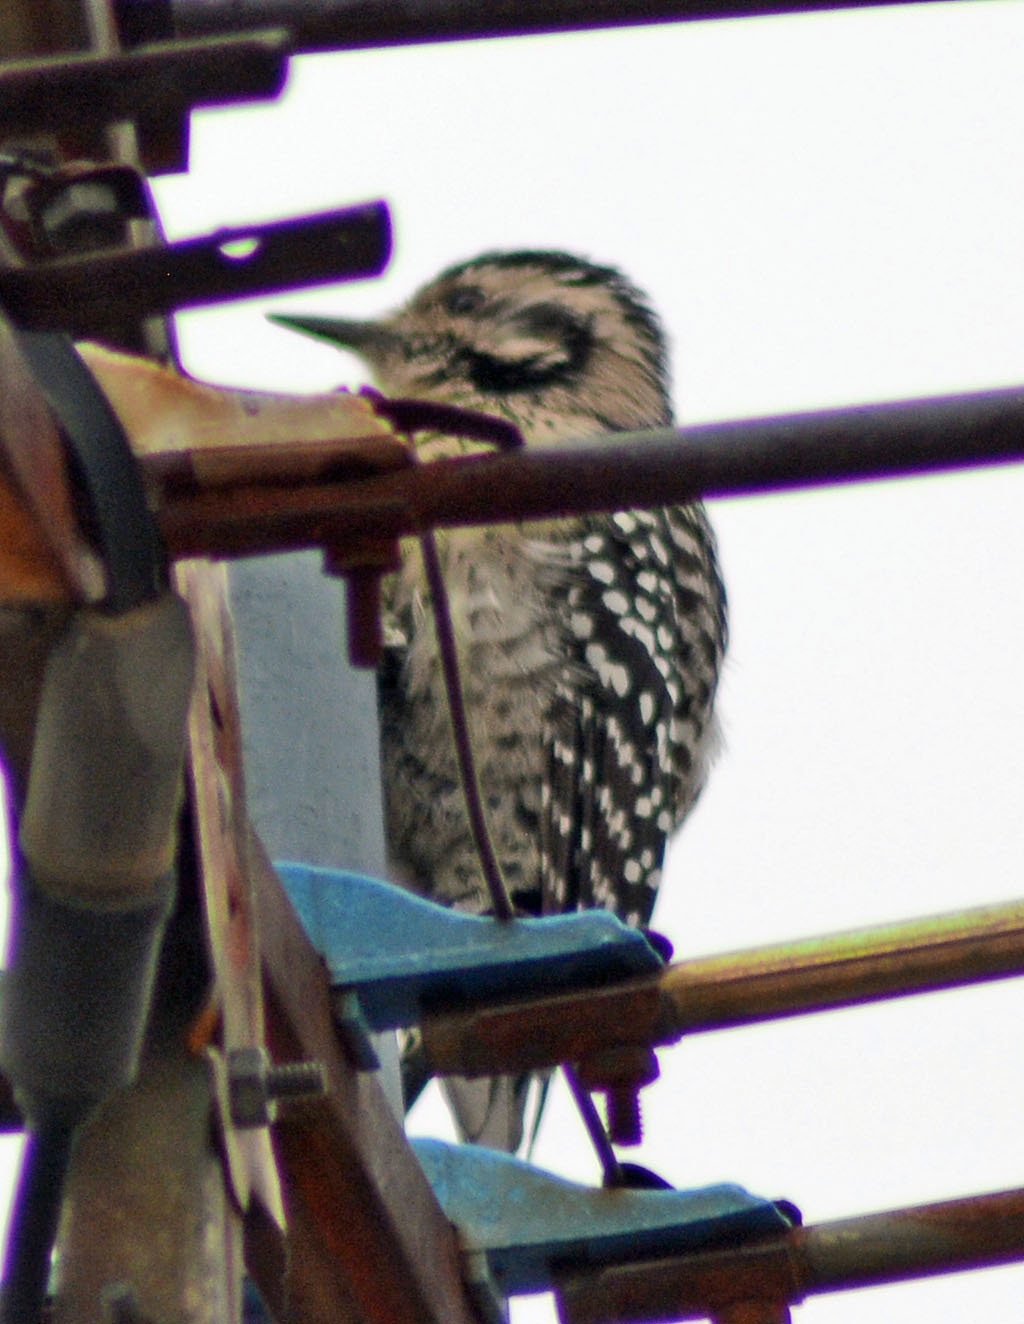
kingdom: Animalia
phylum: Chordata
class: Aves
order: Piciformes
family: Picidae
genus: Dryobates
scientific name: Dryobates scalaris
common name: Ladder-backed woodpecker
